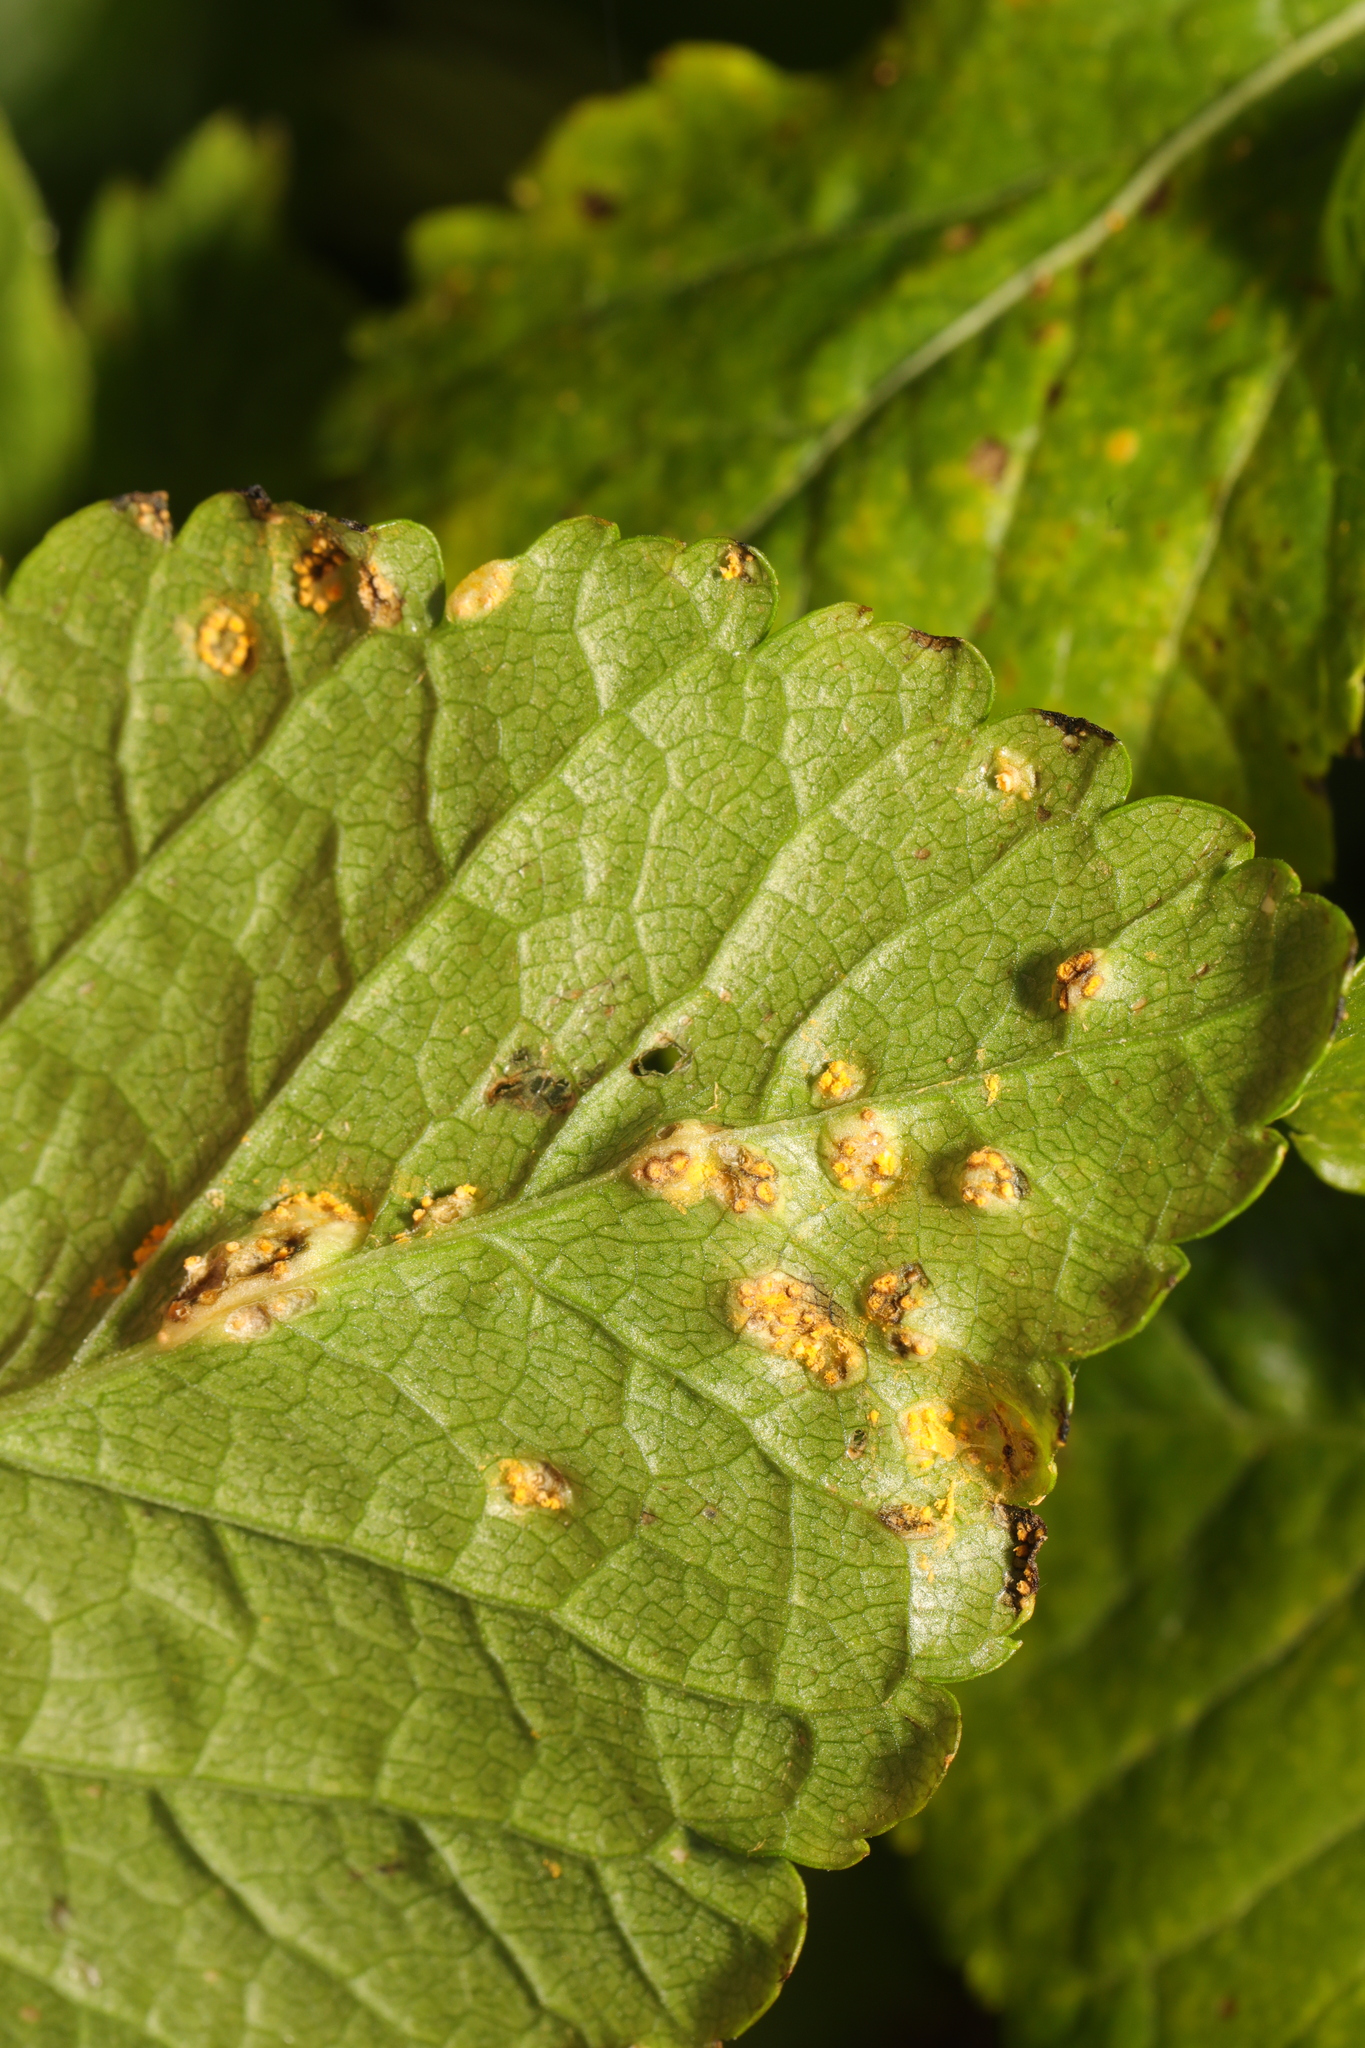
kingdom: Fungi
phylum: Basidiomycota
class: Pucciniomycetes
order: Pucciniales
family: Pucciniaceae
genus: Puccinia
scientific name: Puccinia smyrnii
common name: Alexanders rust
